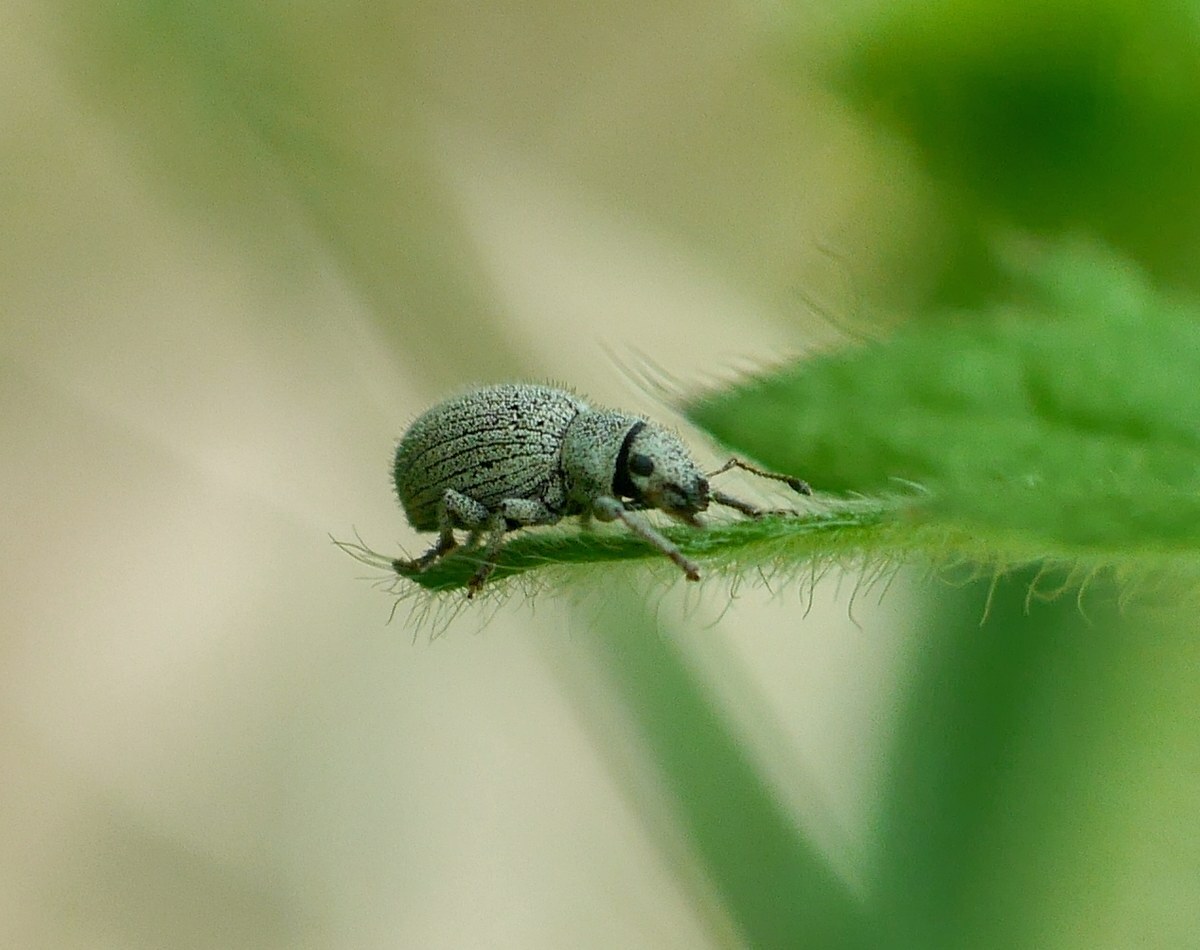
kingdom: Animalia
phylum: Arthropoda
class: Insecta
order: Coleoptera
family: Curculionidae
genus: Foucartia
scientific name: Foucartia squamulata
